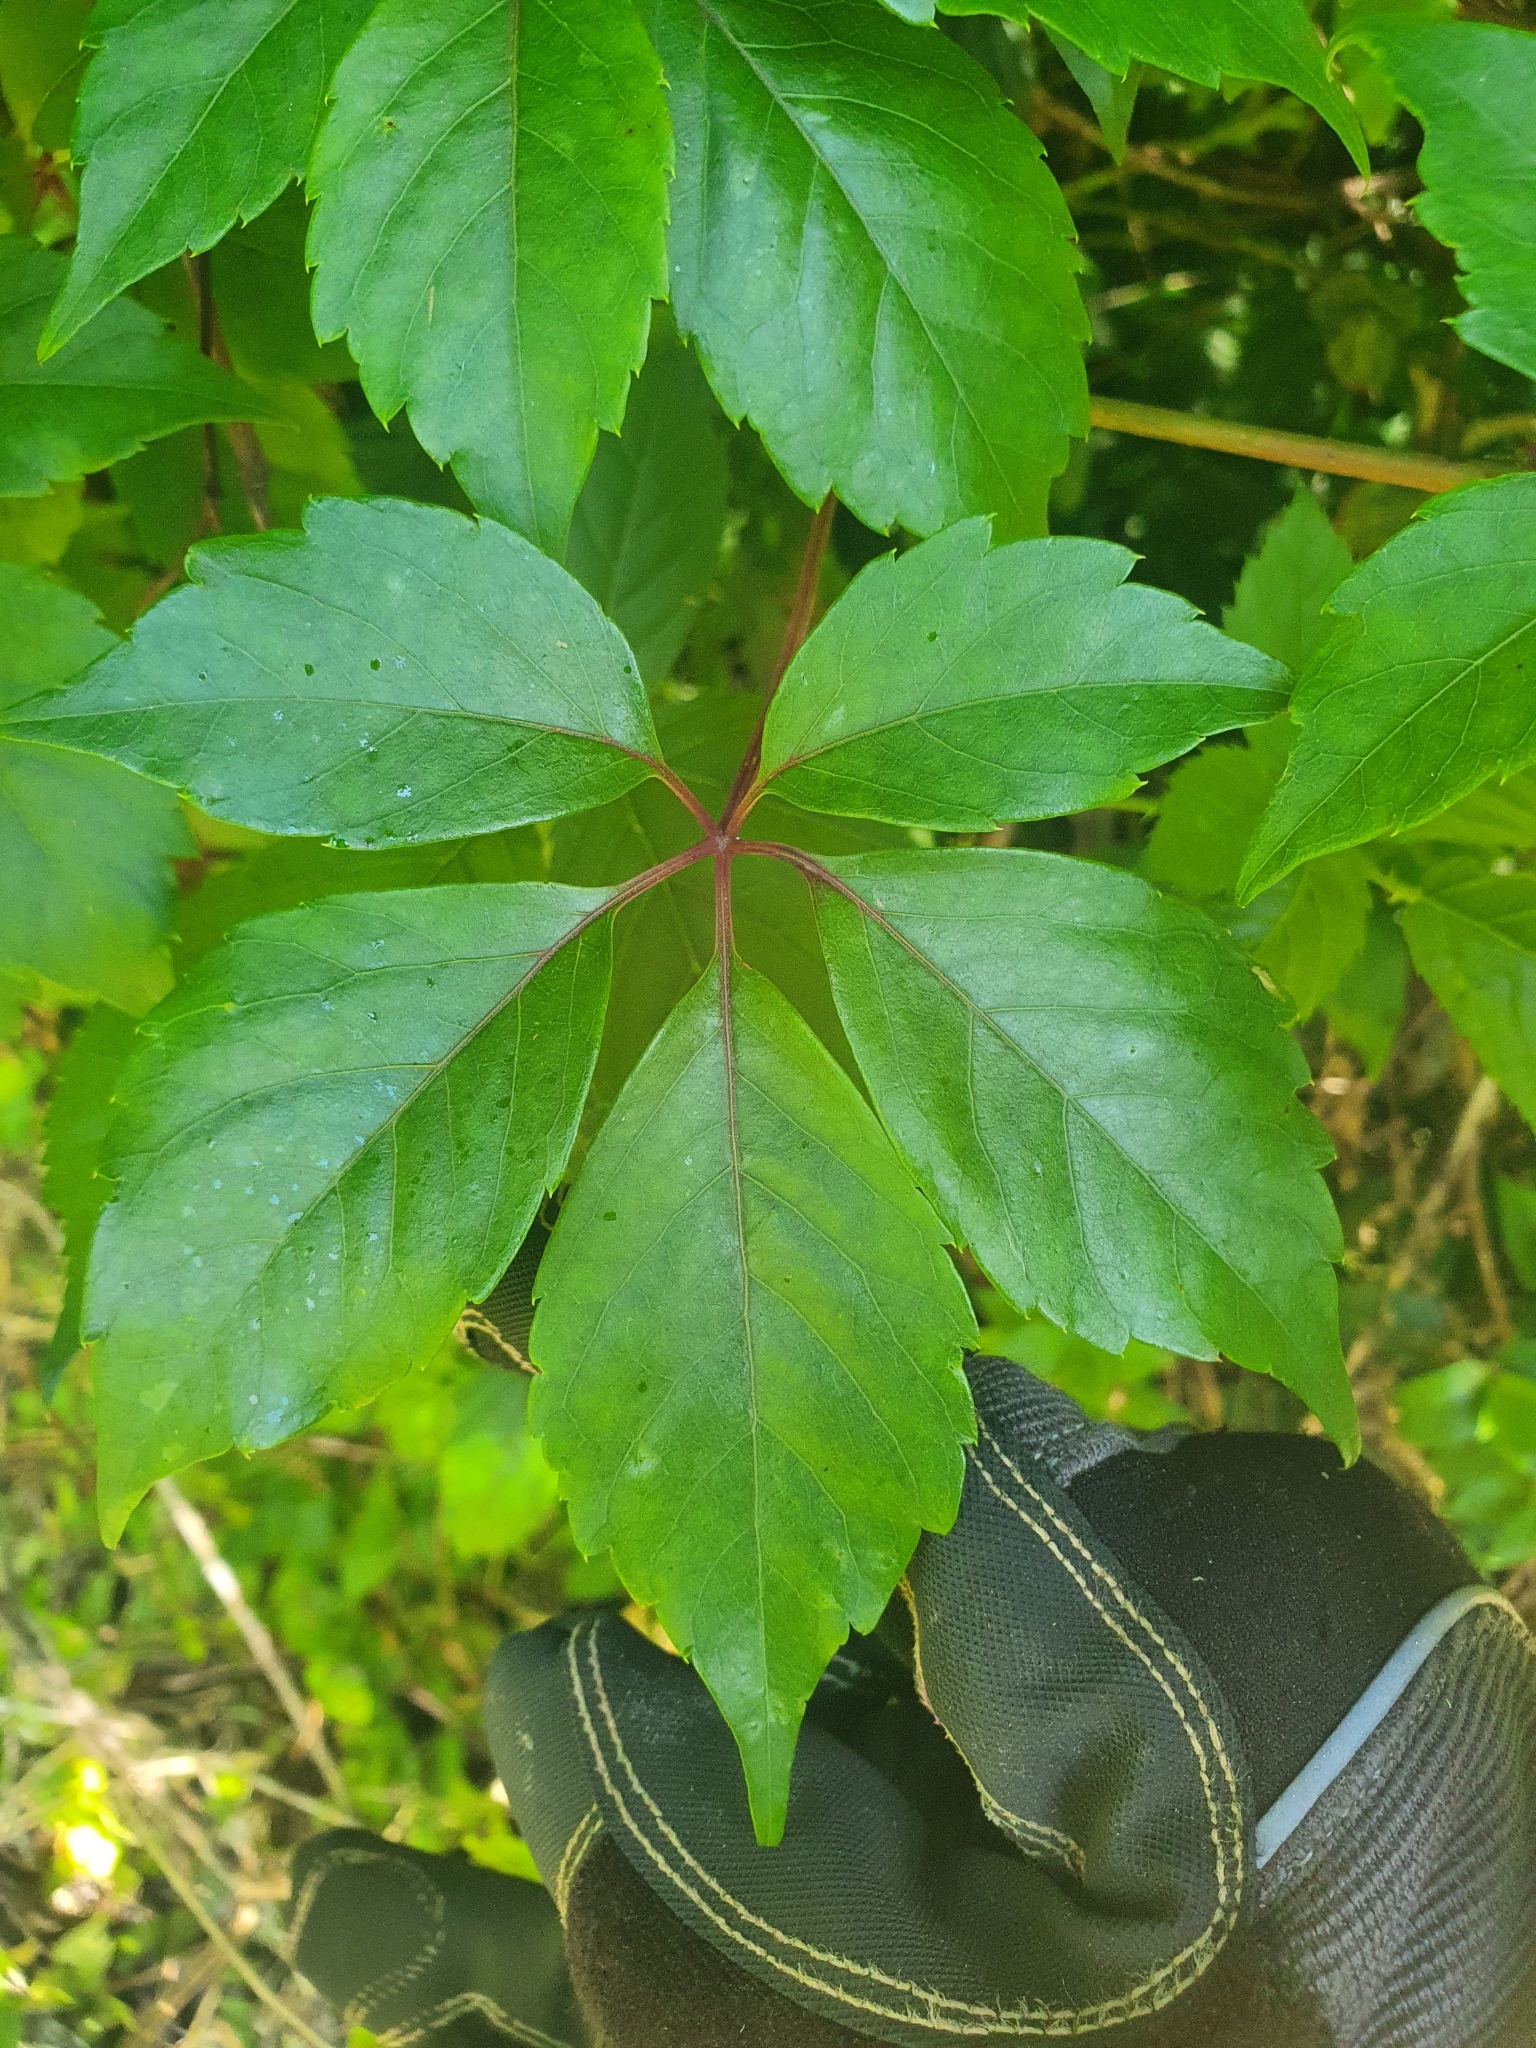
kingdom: Plantae
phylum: Tracheophyta
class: Magnoliopsida
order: Vitales
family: Vitaceae
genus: Parthenocissus
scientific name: Parthenocissus quinquefolia
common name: Virginia-creeper
